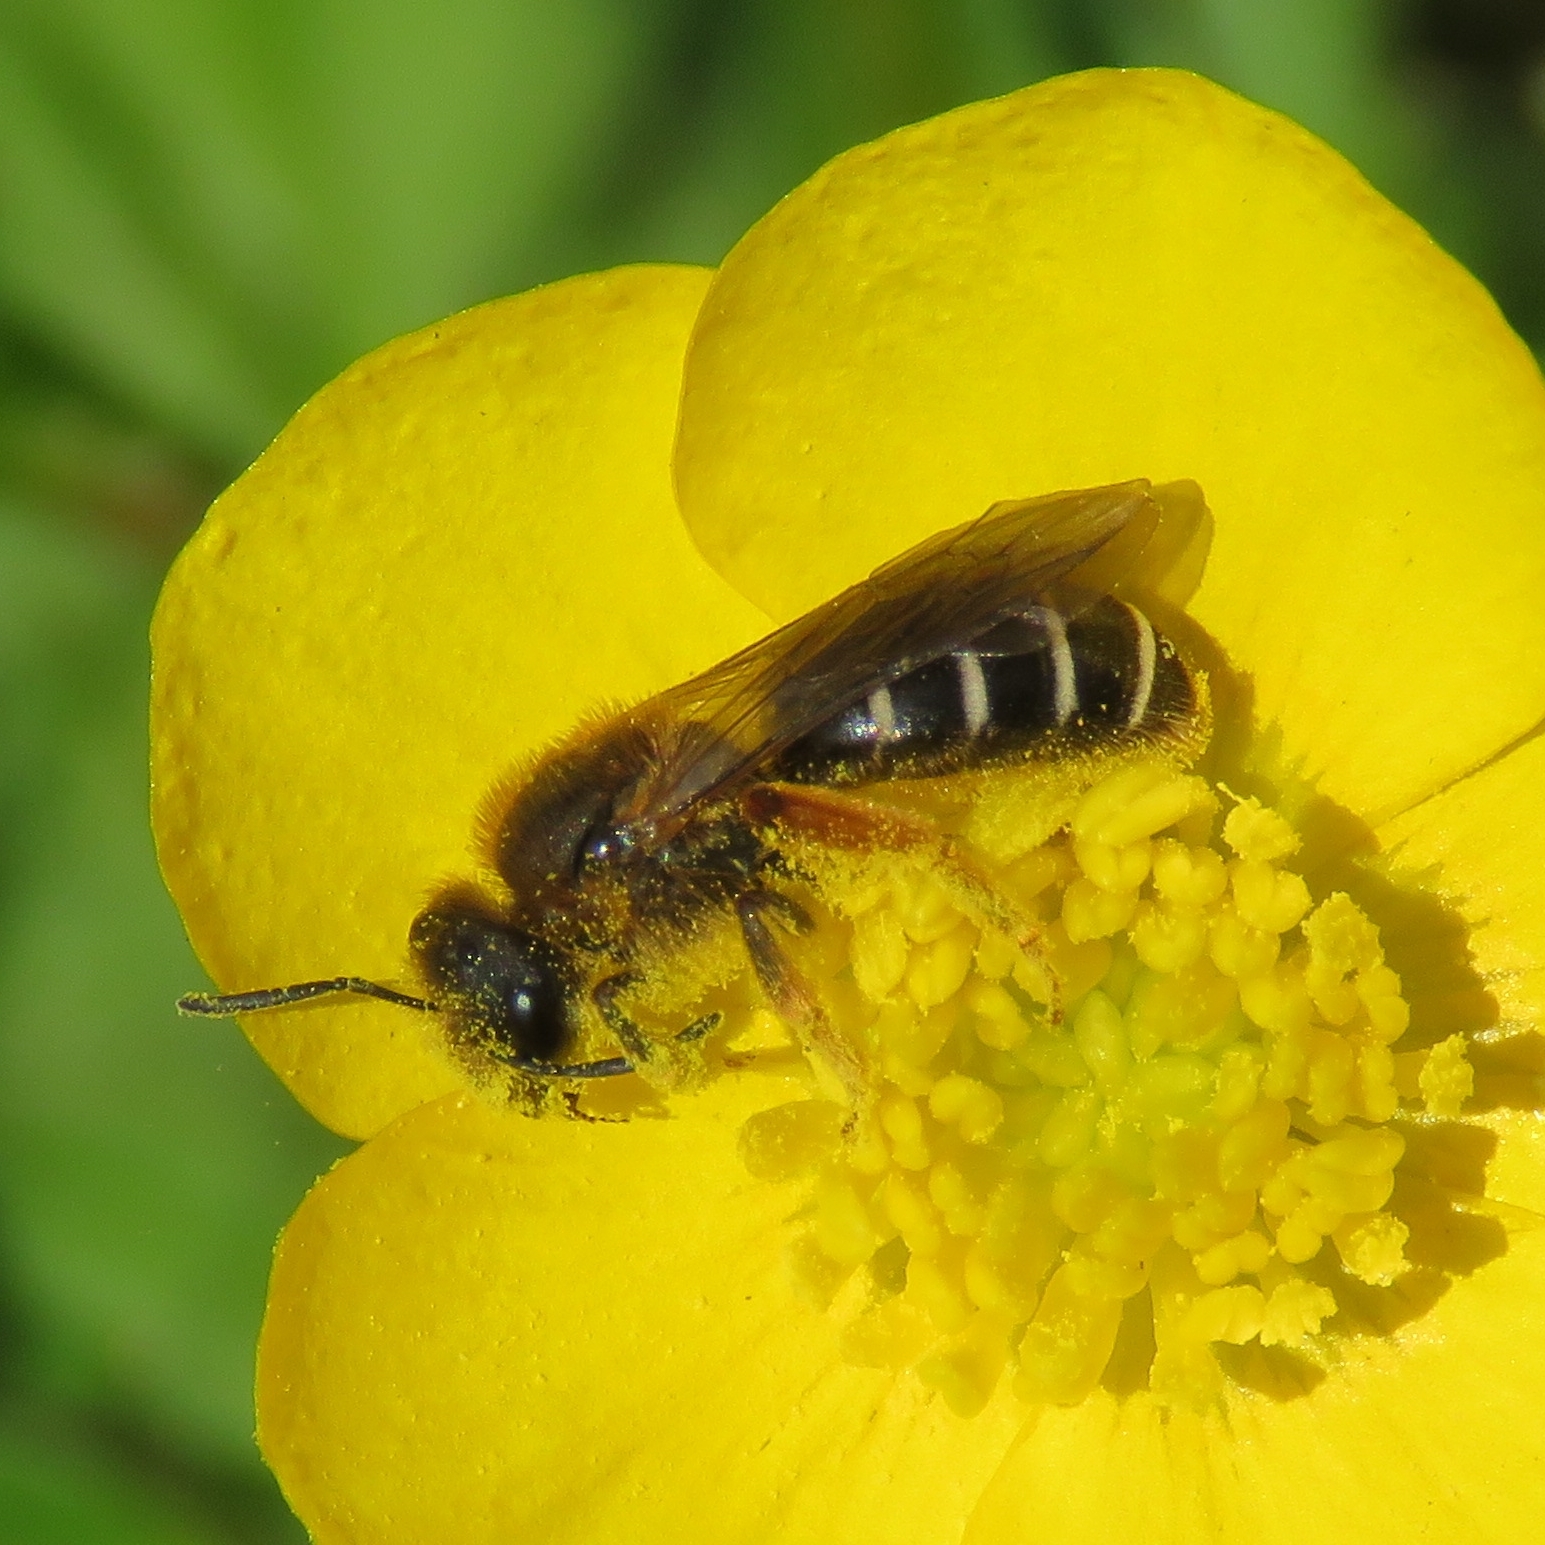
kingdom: Animalia
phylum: Arthropoda
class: Insecta
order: Hymenoptera
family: Halictidae
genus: Halictus
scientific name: Halictus rubicundus
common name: Orange-legged furrow bee
